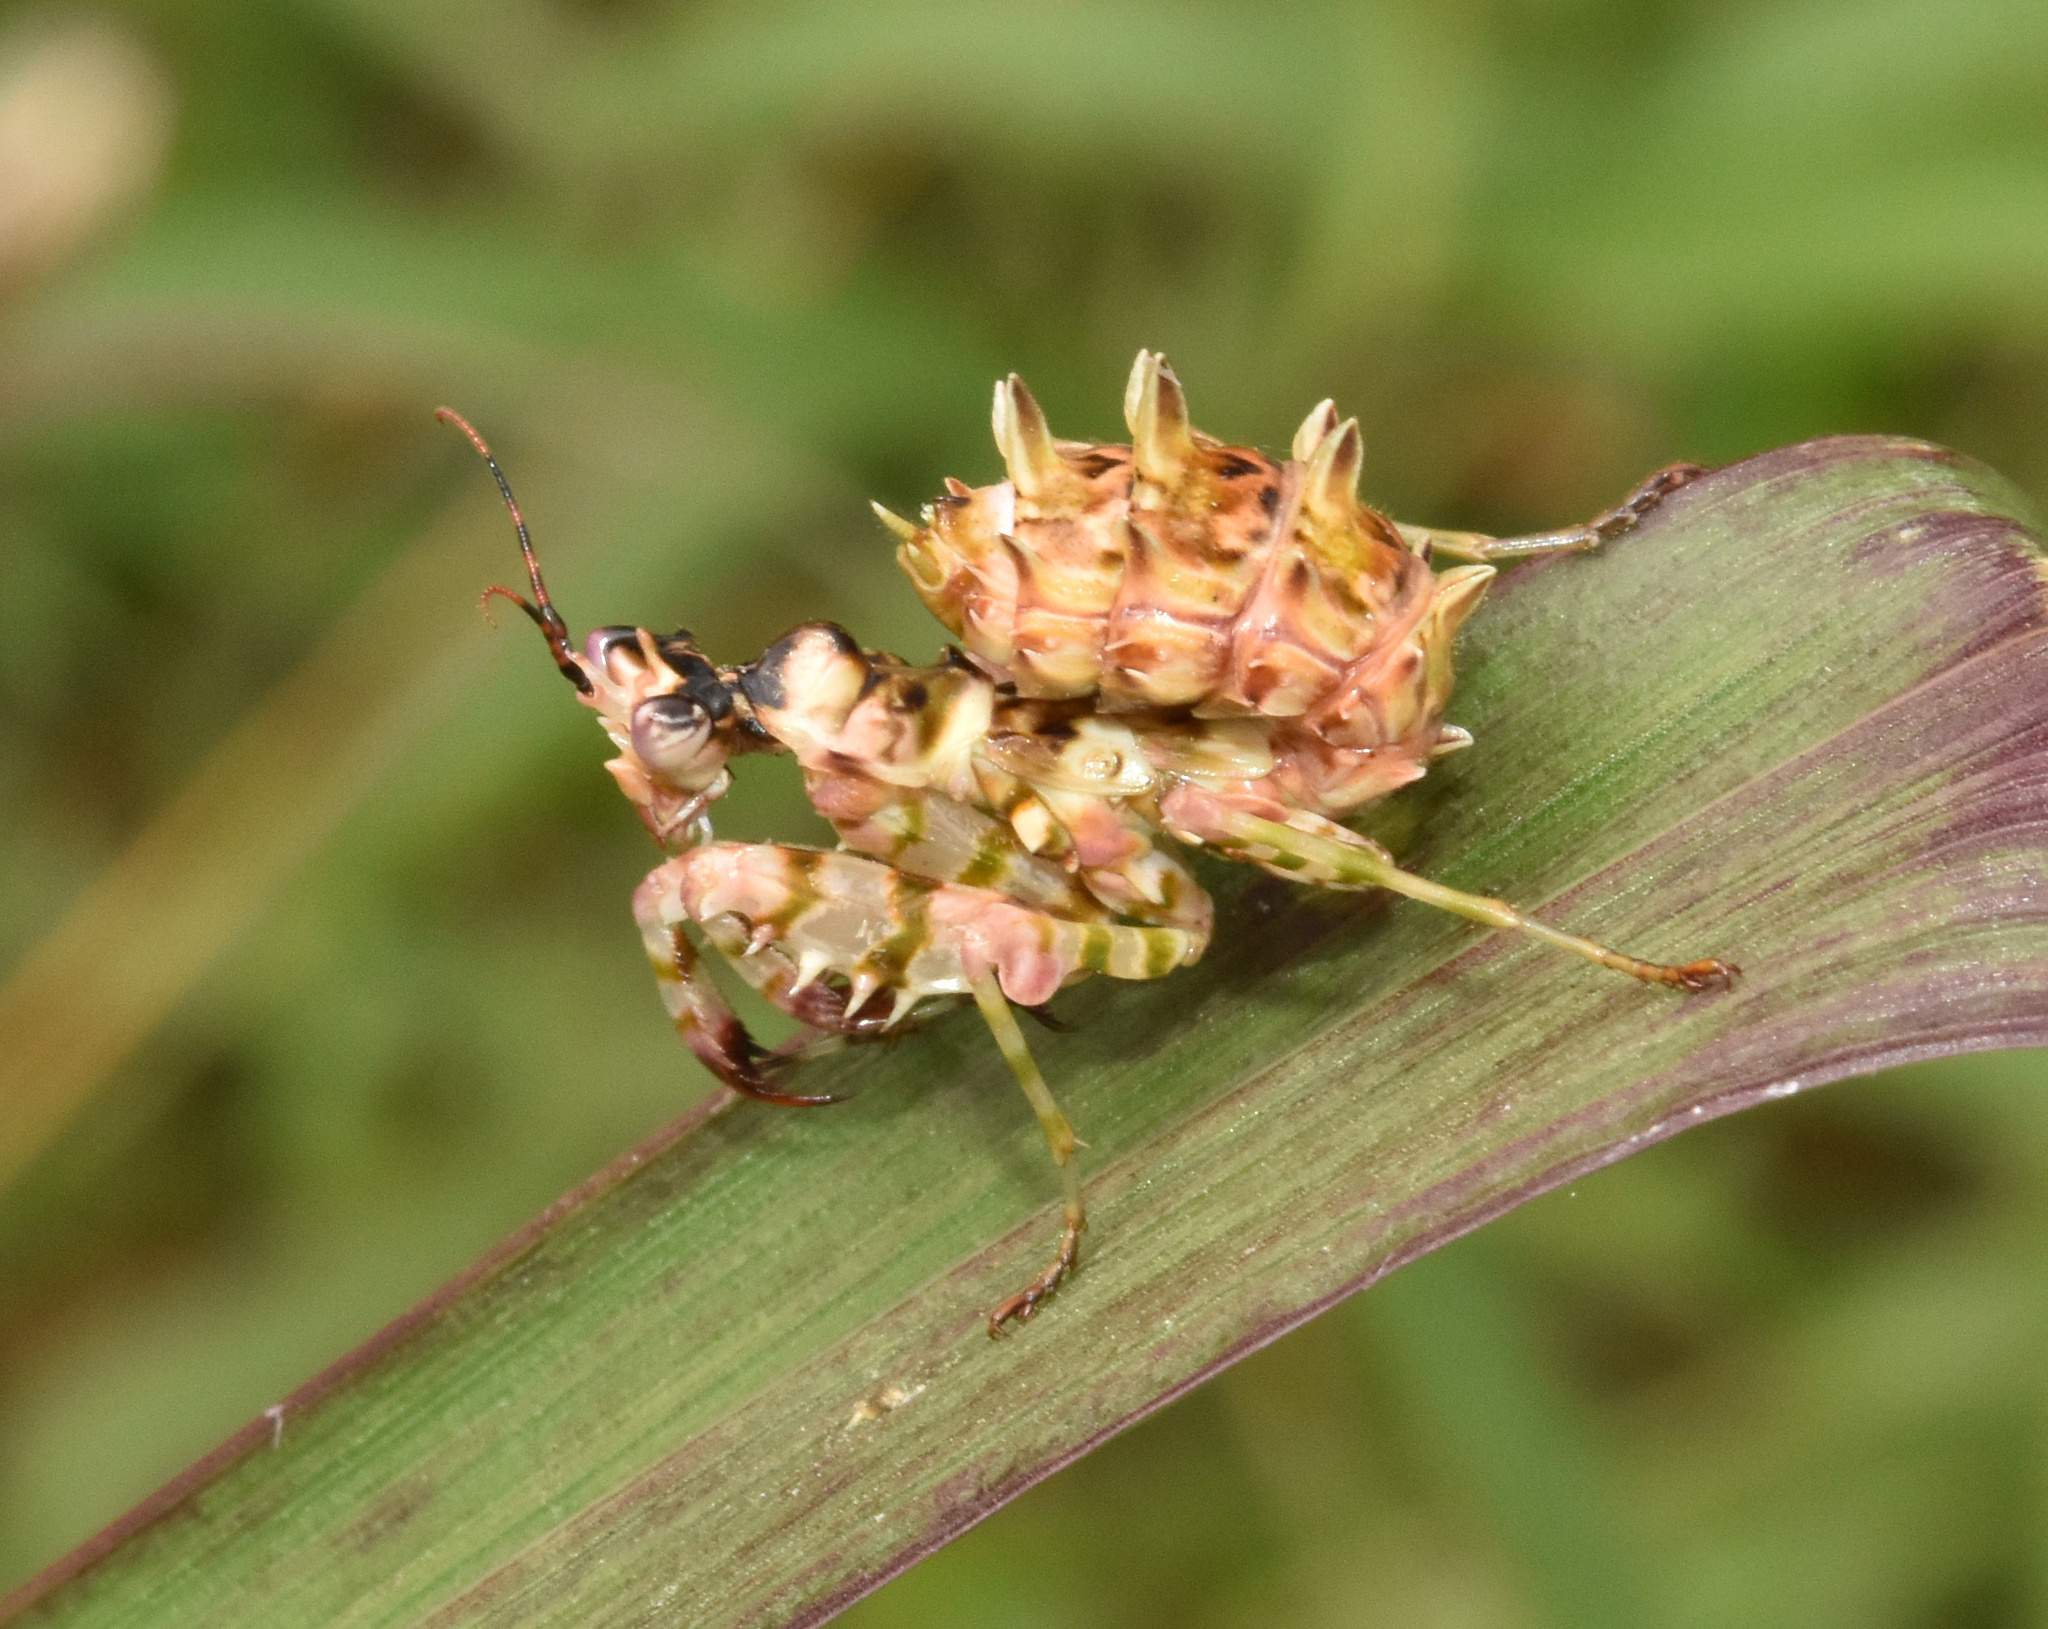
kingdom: Animalia
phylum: Arthropoda
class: Insecta
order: Mantodea
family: Hymenopodidae
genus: Pseudocreobotra
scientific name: Pseudocreobotra wahlbergi
